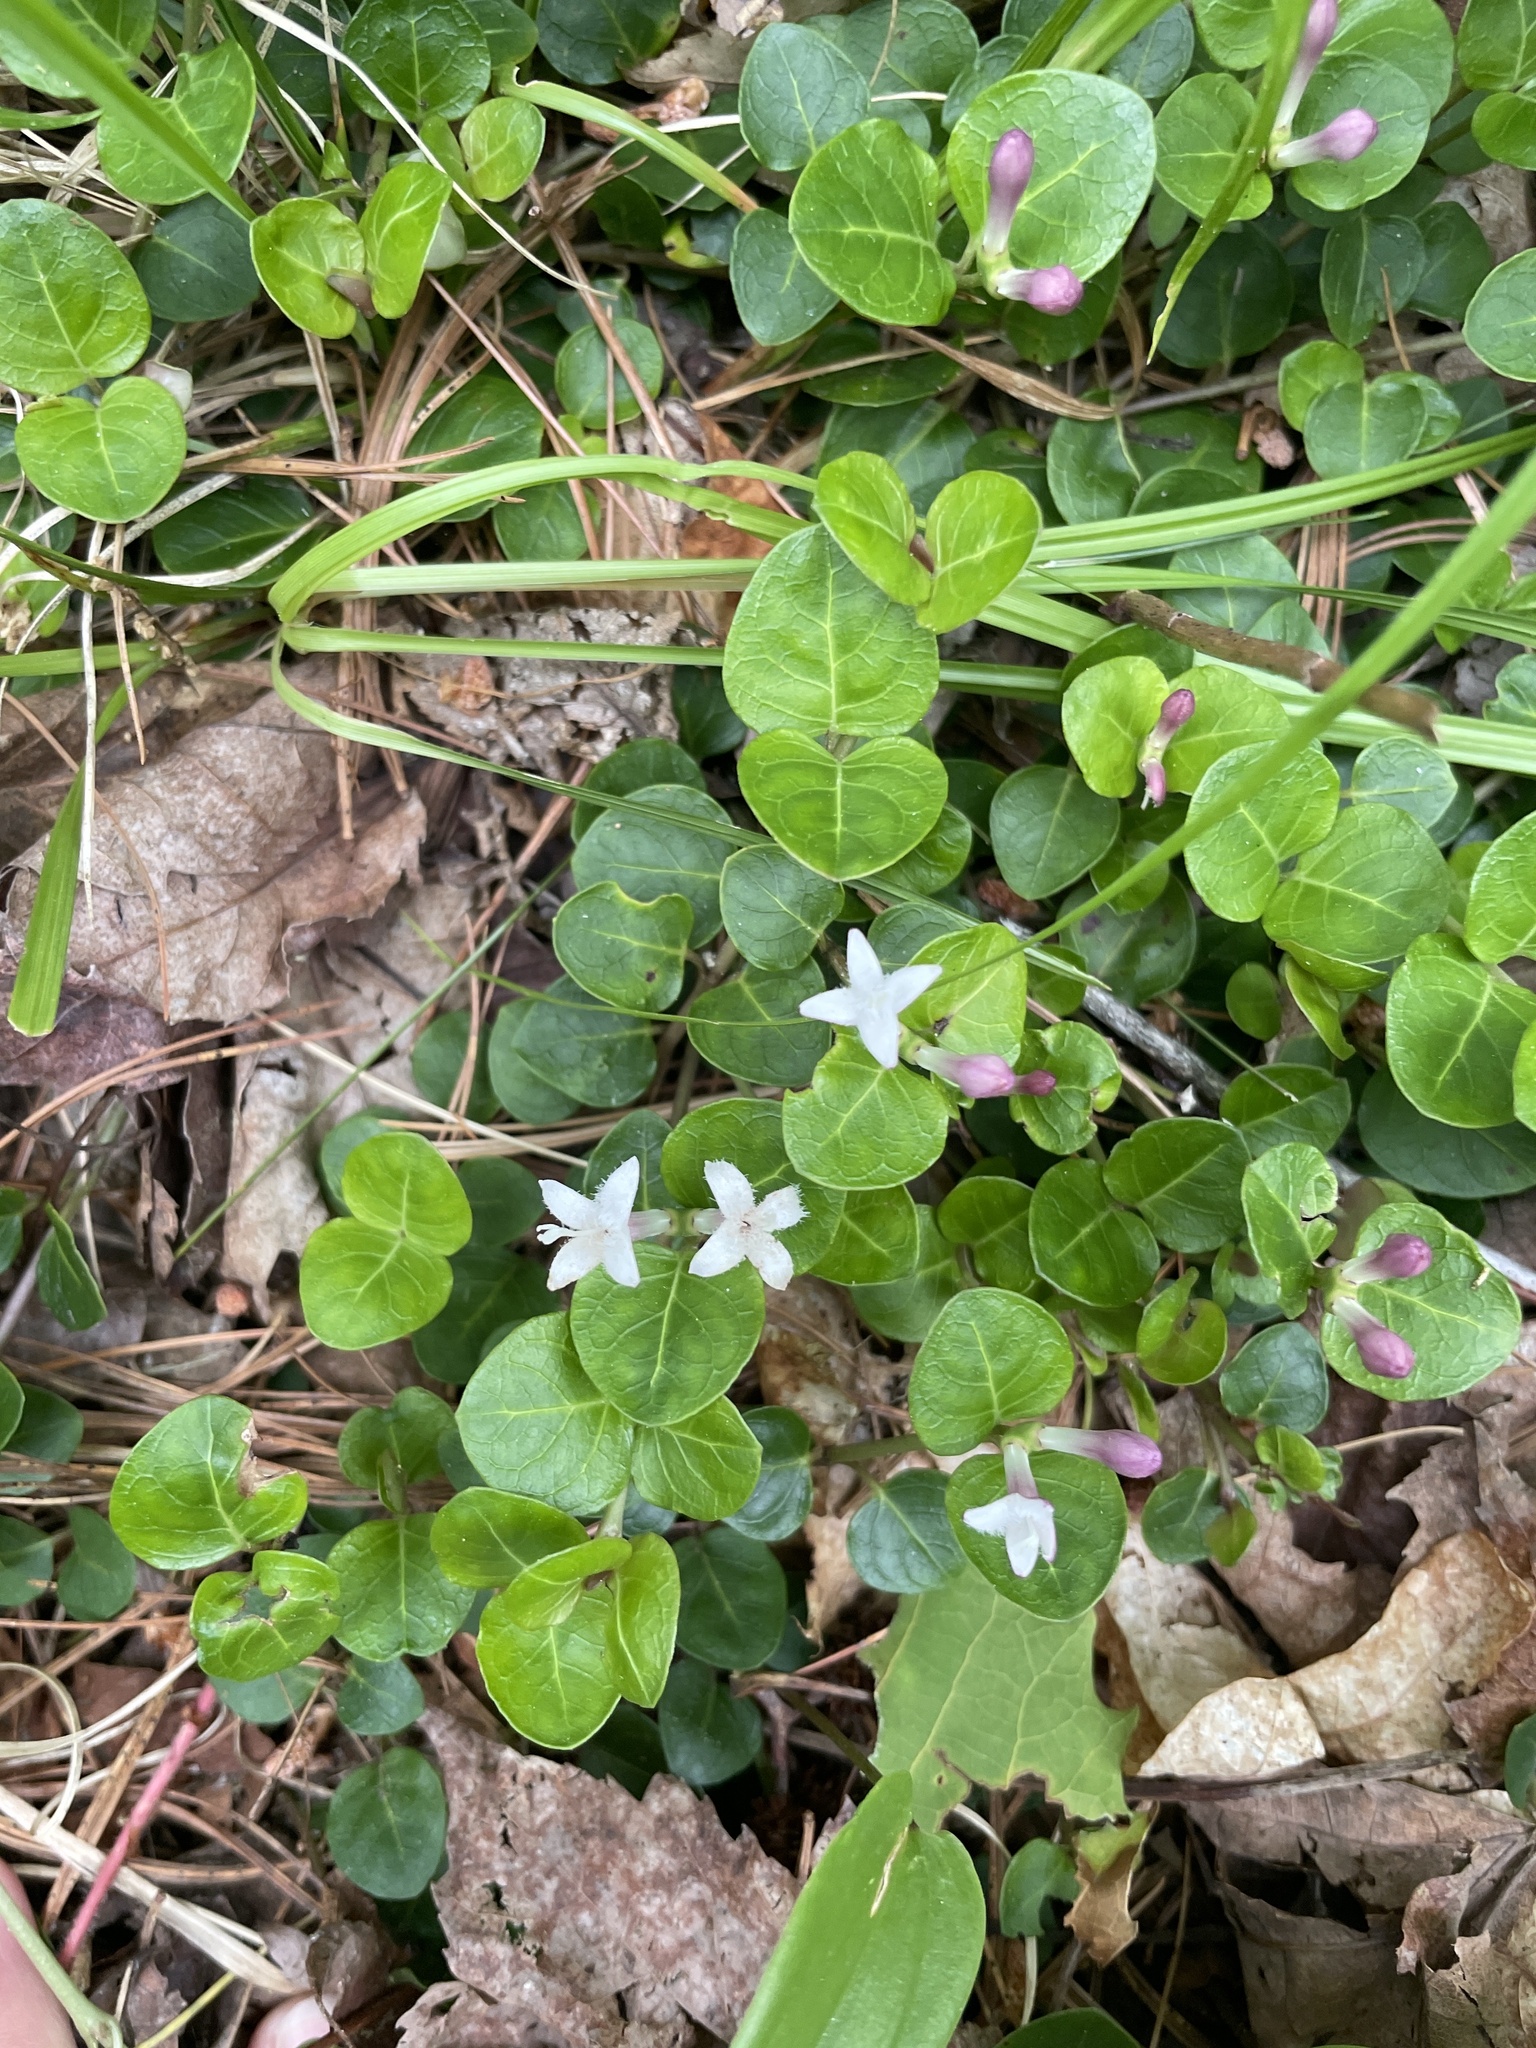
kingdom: Plantae
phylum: Tracheophyta
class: Magnoliopsida
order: Gentianales
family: Rubiaceae
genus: Mitchella
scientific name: Mitchella repens
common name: Partridge-berry
